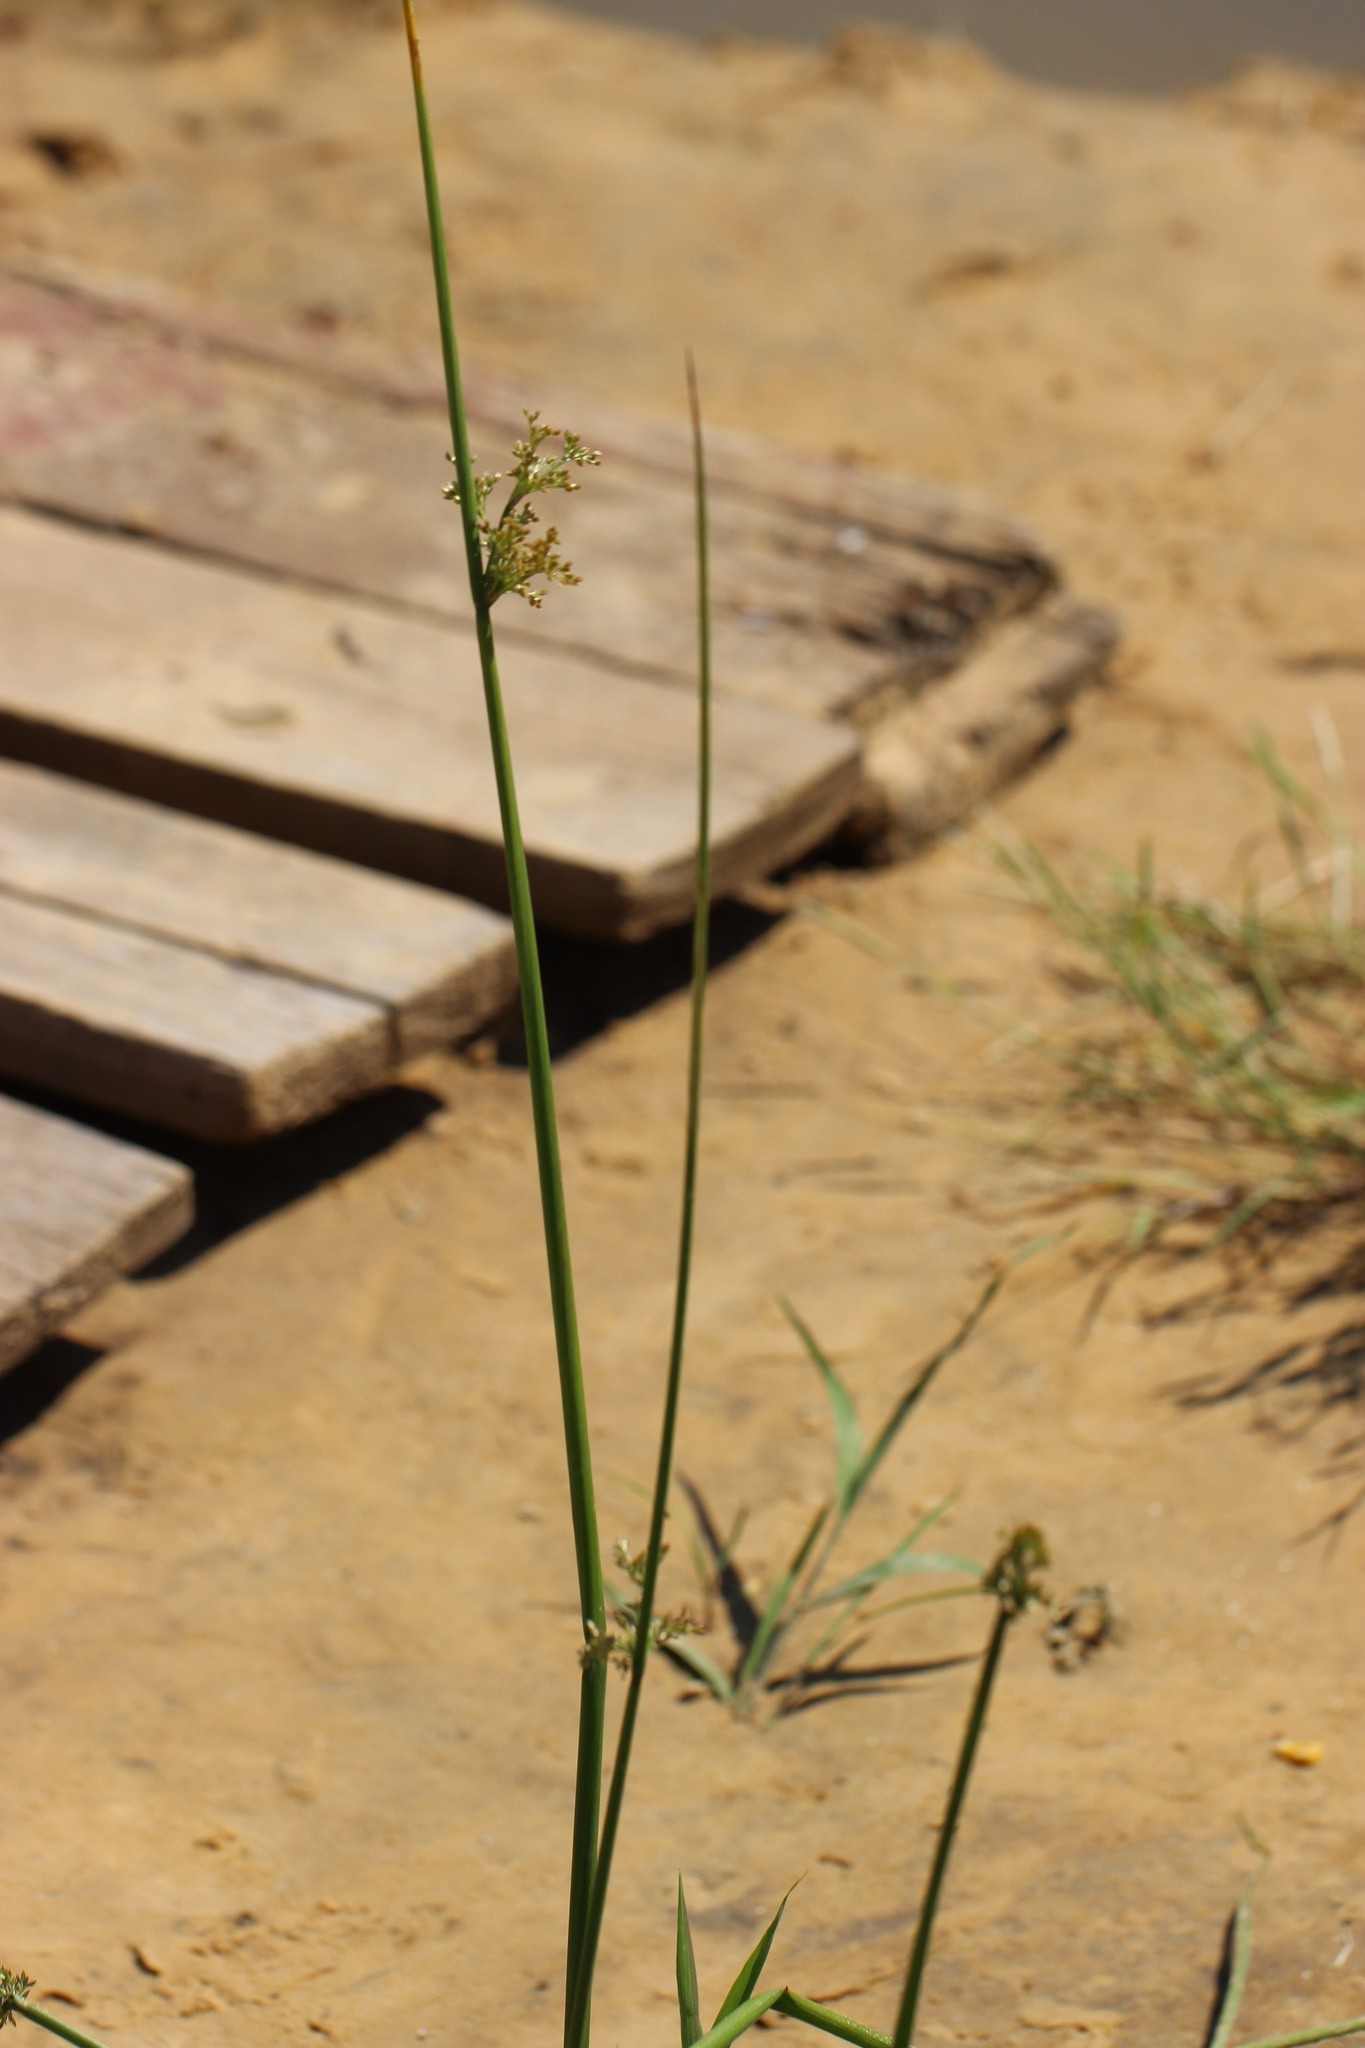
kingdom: Plantae
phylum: Tracheophyta
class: Liliopsida
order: Poales
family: Juncaceae
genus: Juncus
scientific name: Juncus effusus
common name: Soft rush
